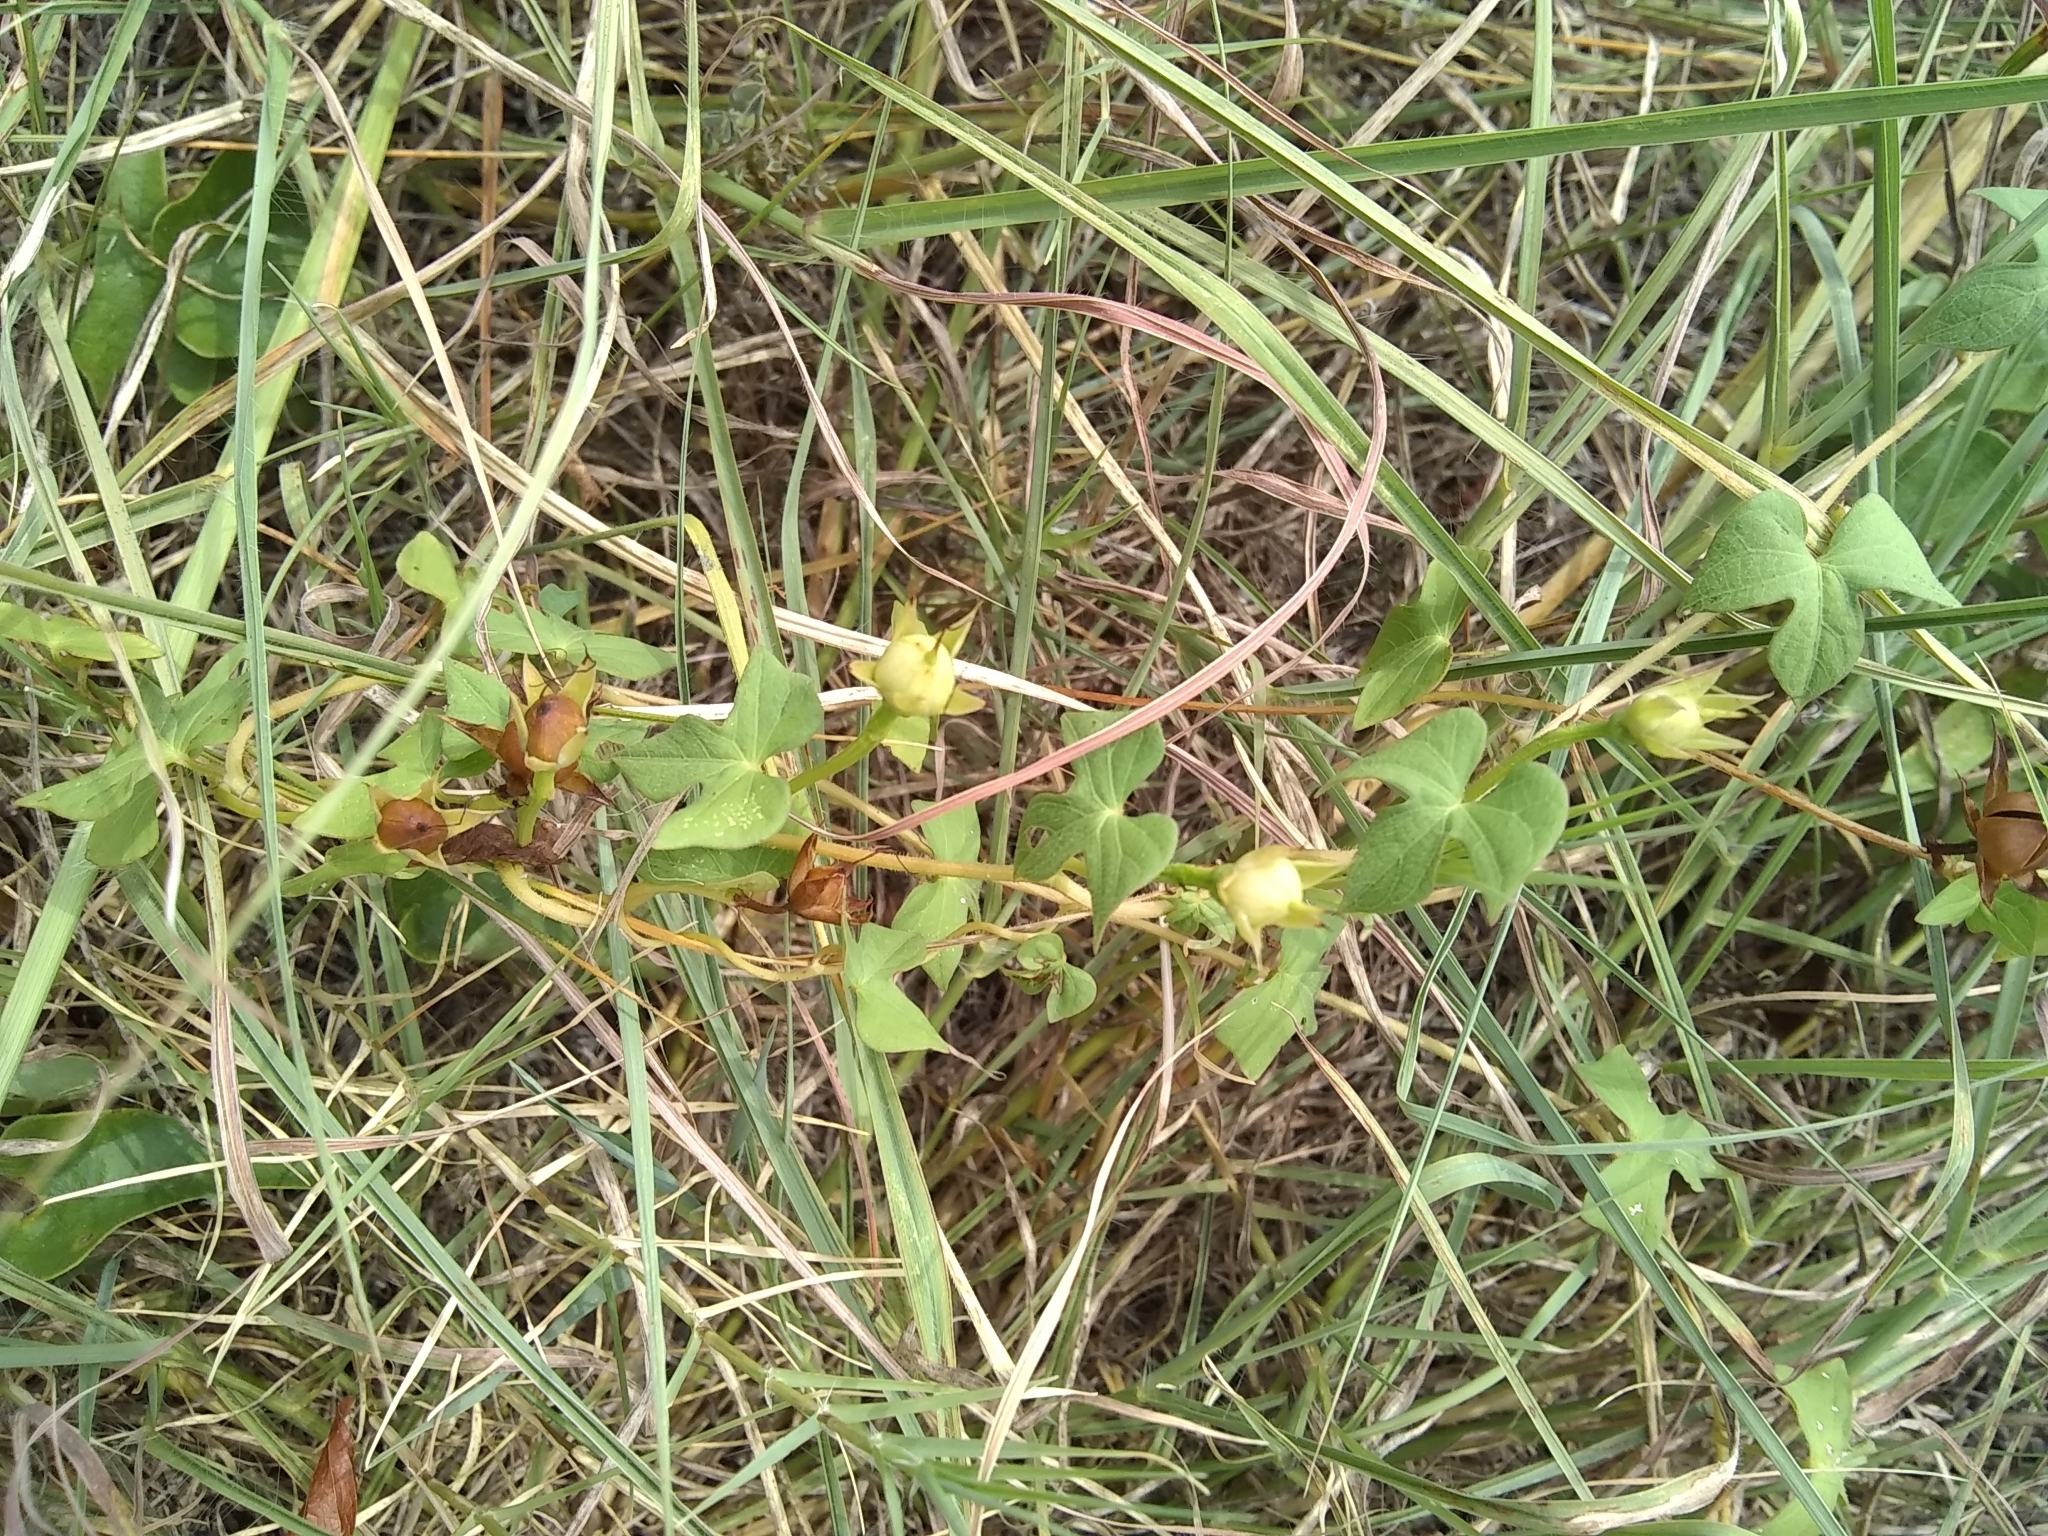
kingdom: Plantae
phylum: Tracheophyta
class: Magnoliopsida
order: Solanales
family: Convolvulaceae
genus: Ipomoea
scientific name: Ipomoea cordatotriloba
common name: Cotton morning glory
